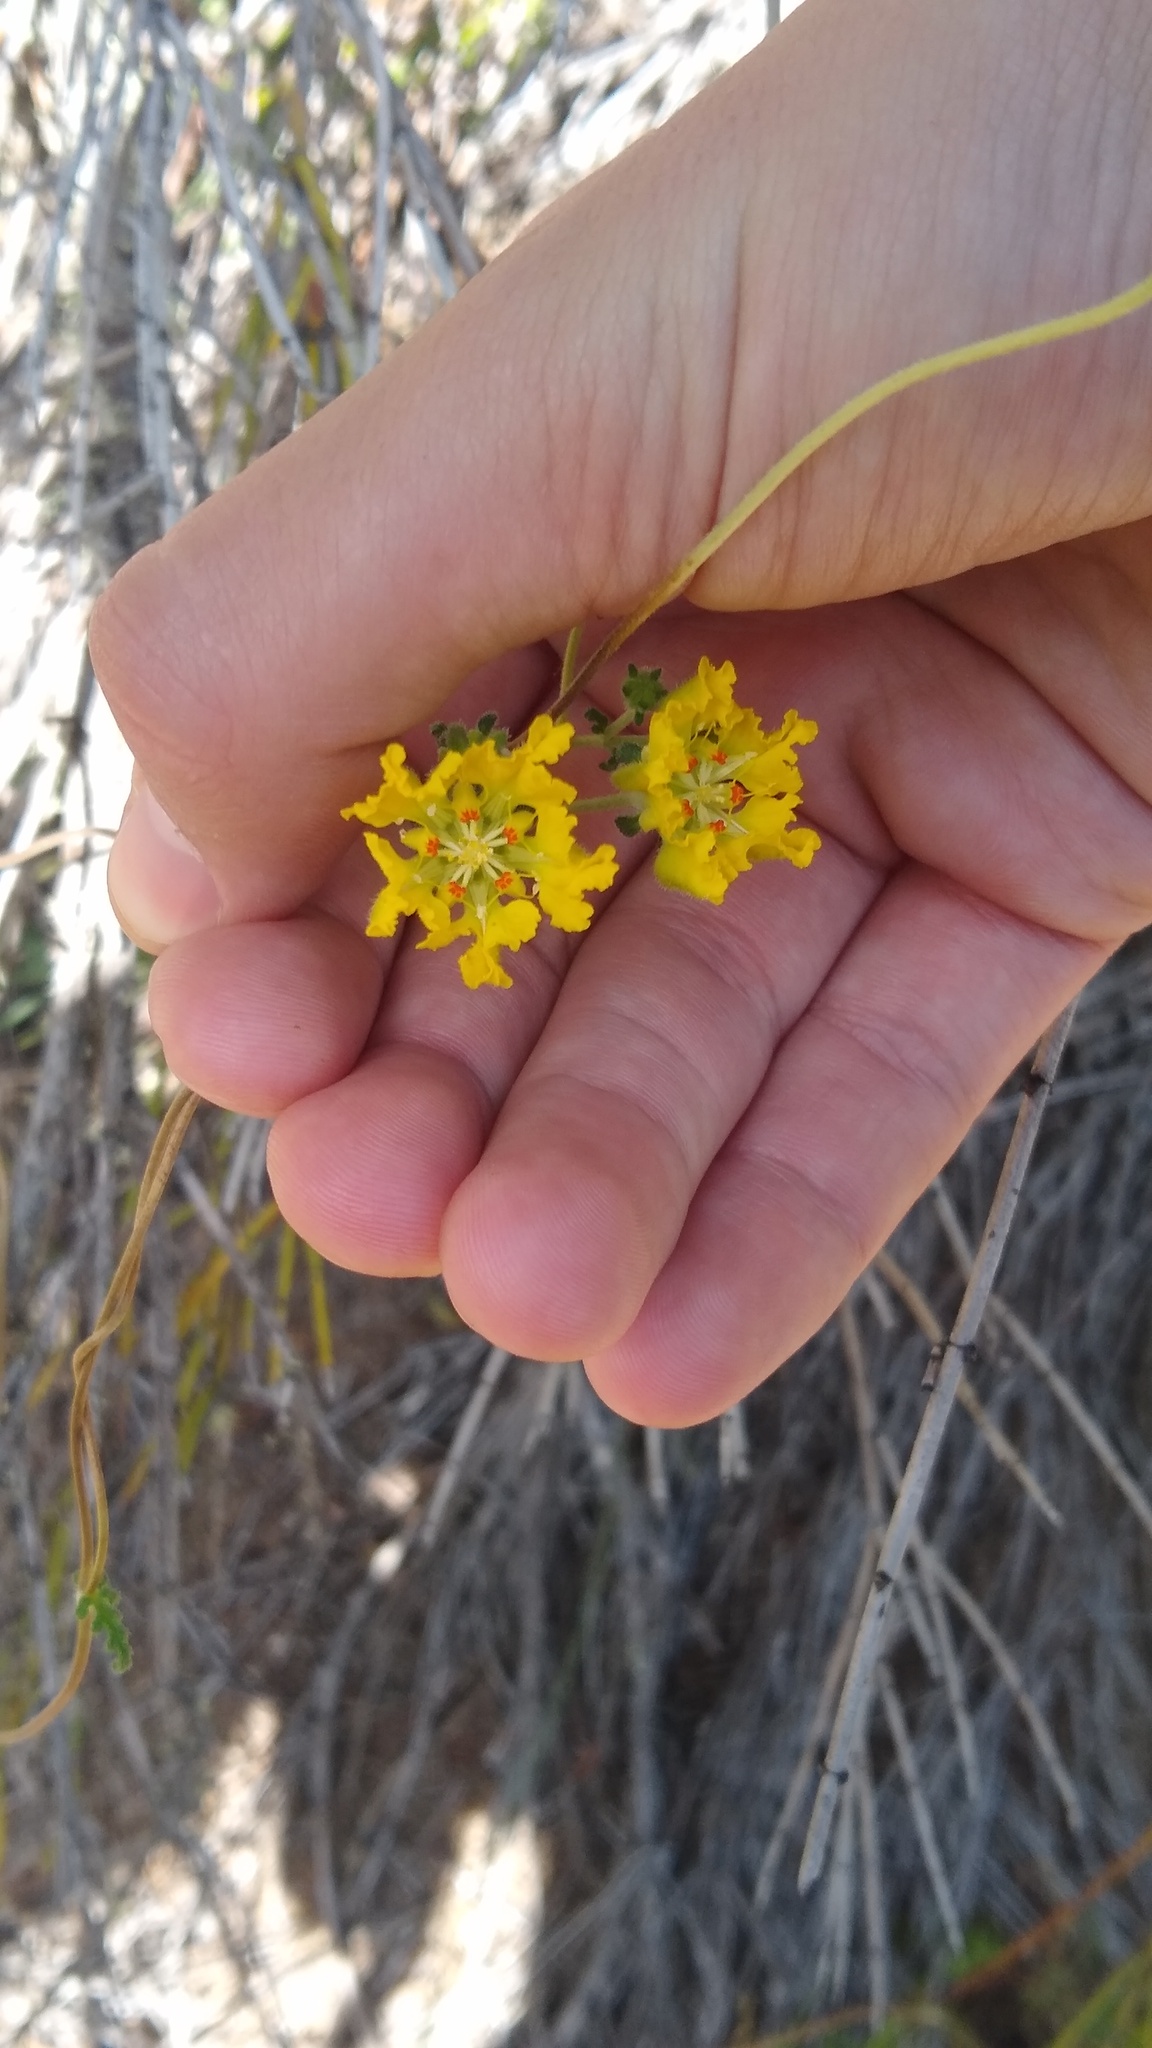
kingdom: Plantae
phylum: Tracheophyta
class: Magnoliopsida
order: Cornales
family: Loasaceae
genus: Pinnasa
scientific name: Pinnasa bergii
